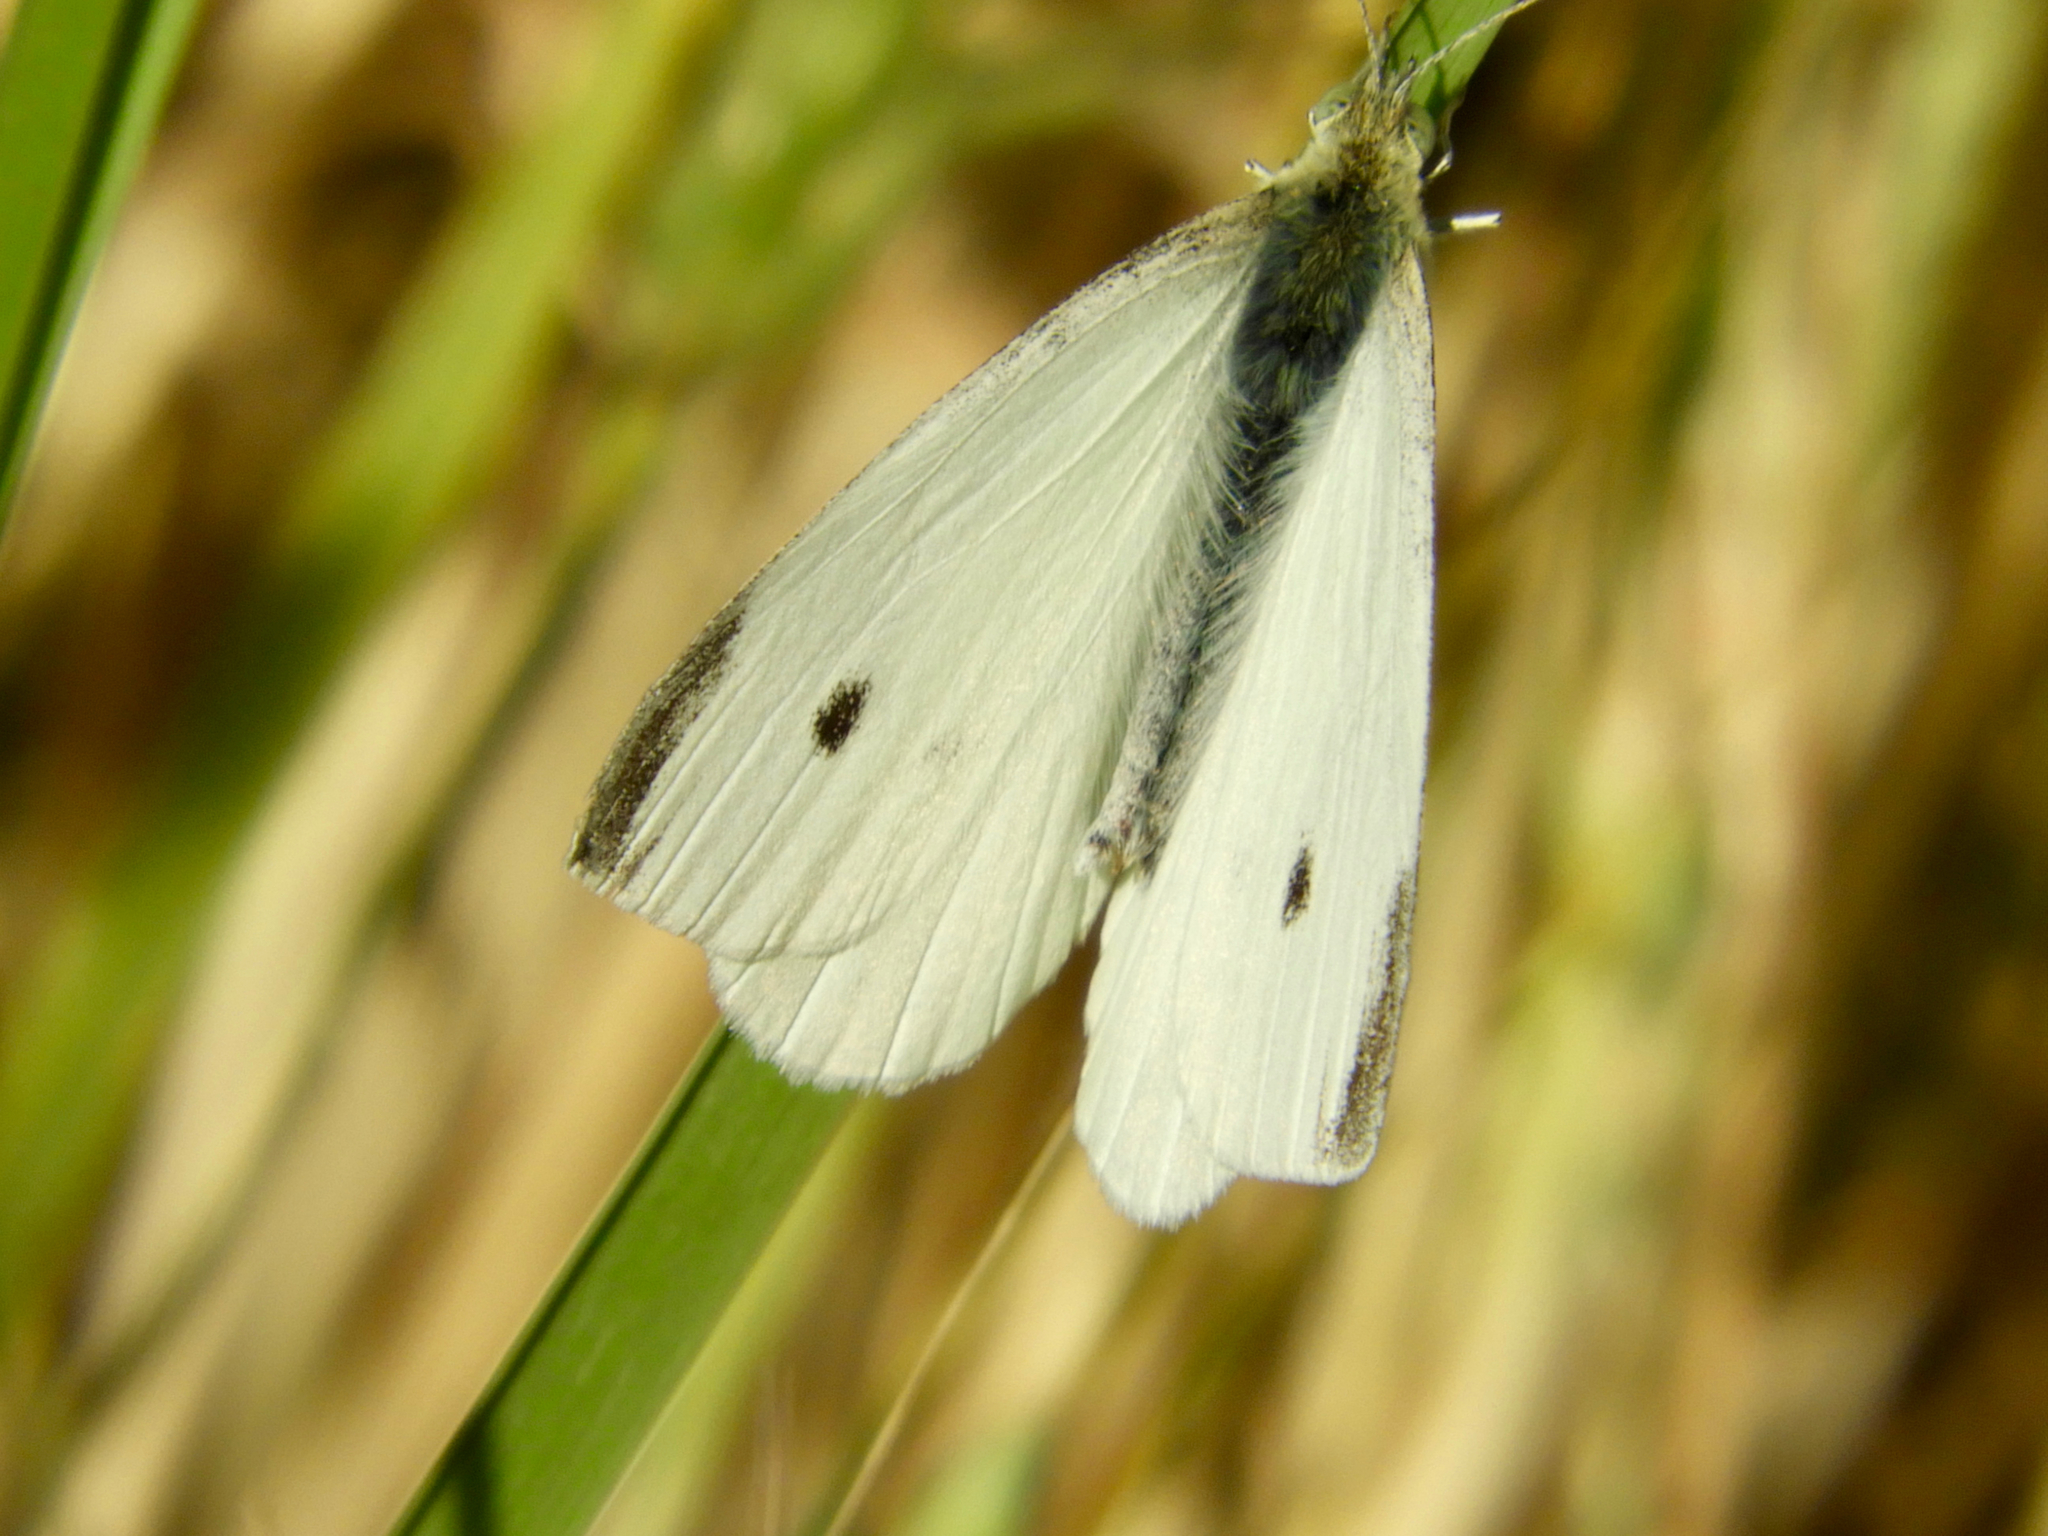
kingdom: Animalia
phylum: Arthropoda
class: Insecta
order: Lepidoptera
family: Pieridae
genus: Pieris
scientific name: Pieris rapae
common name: Small white
